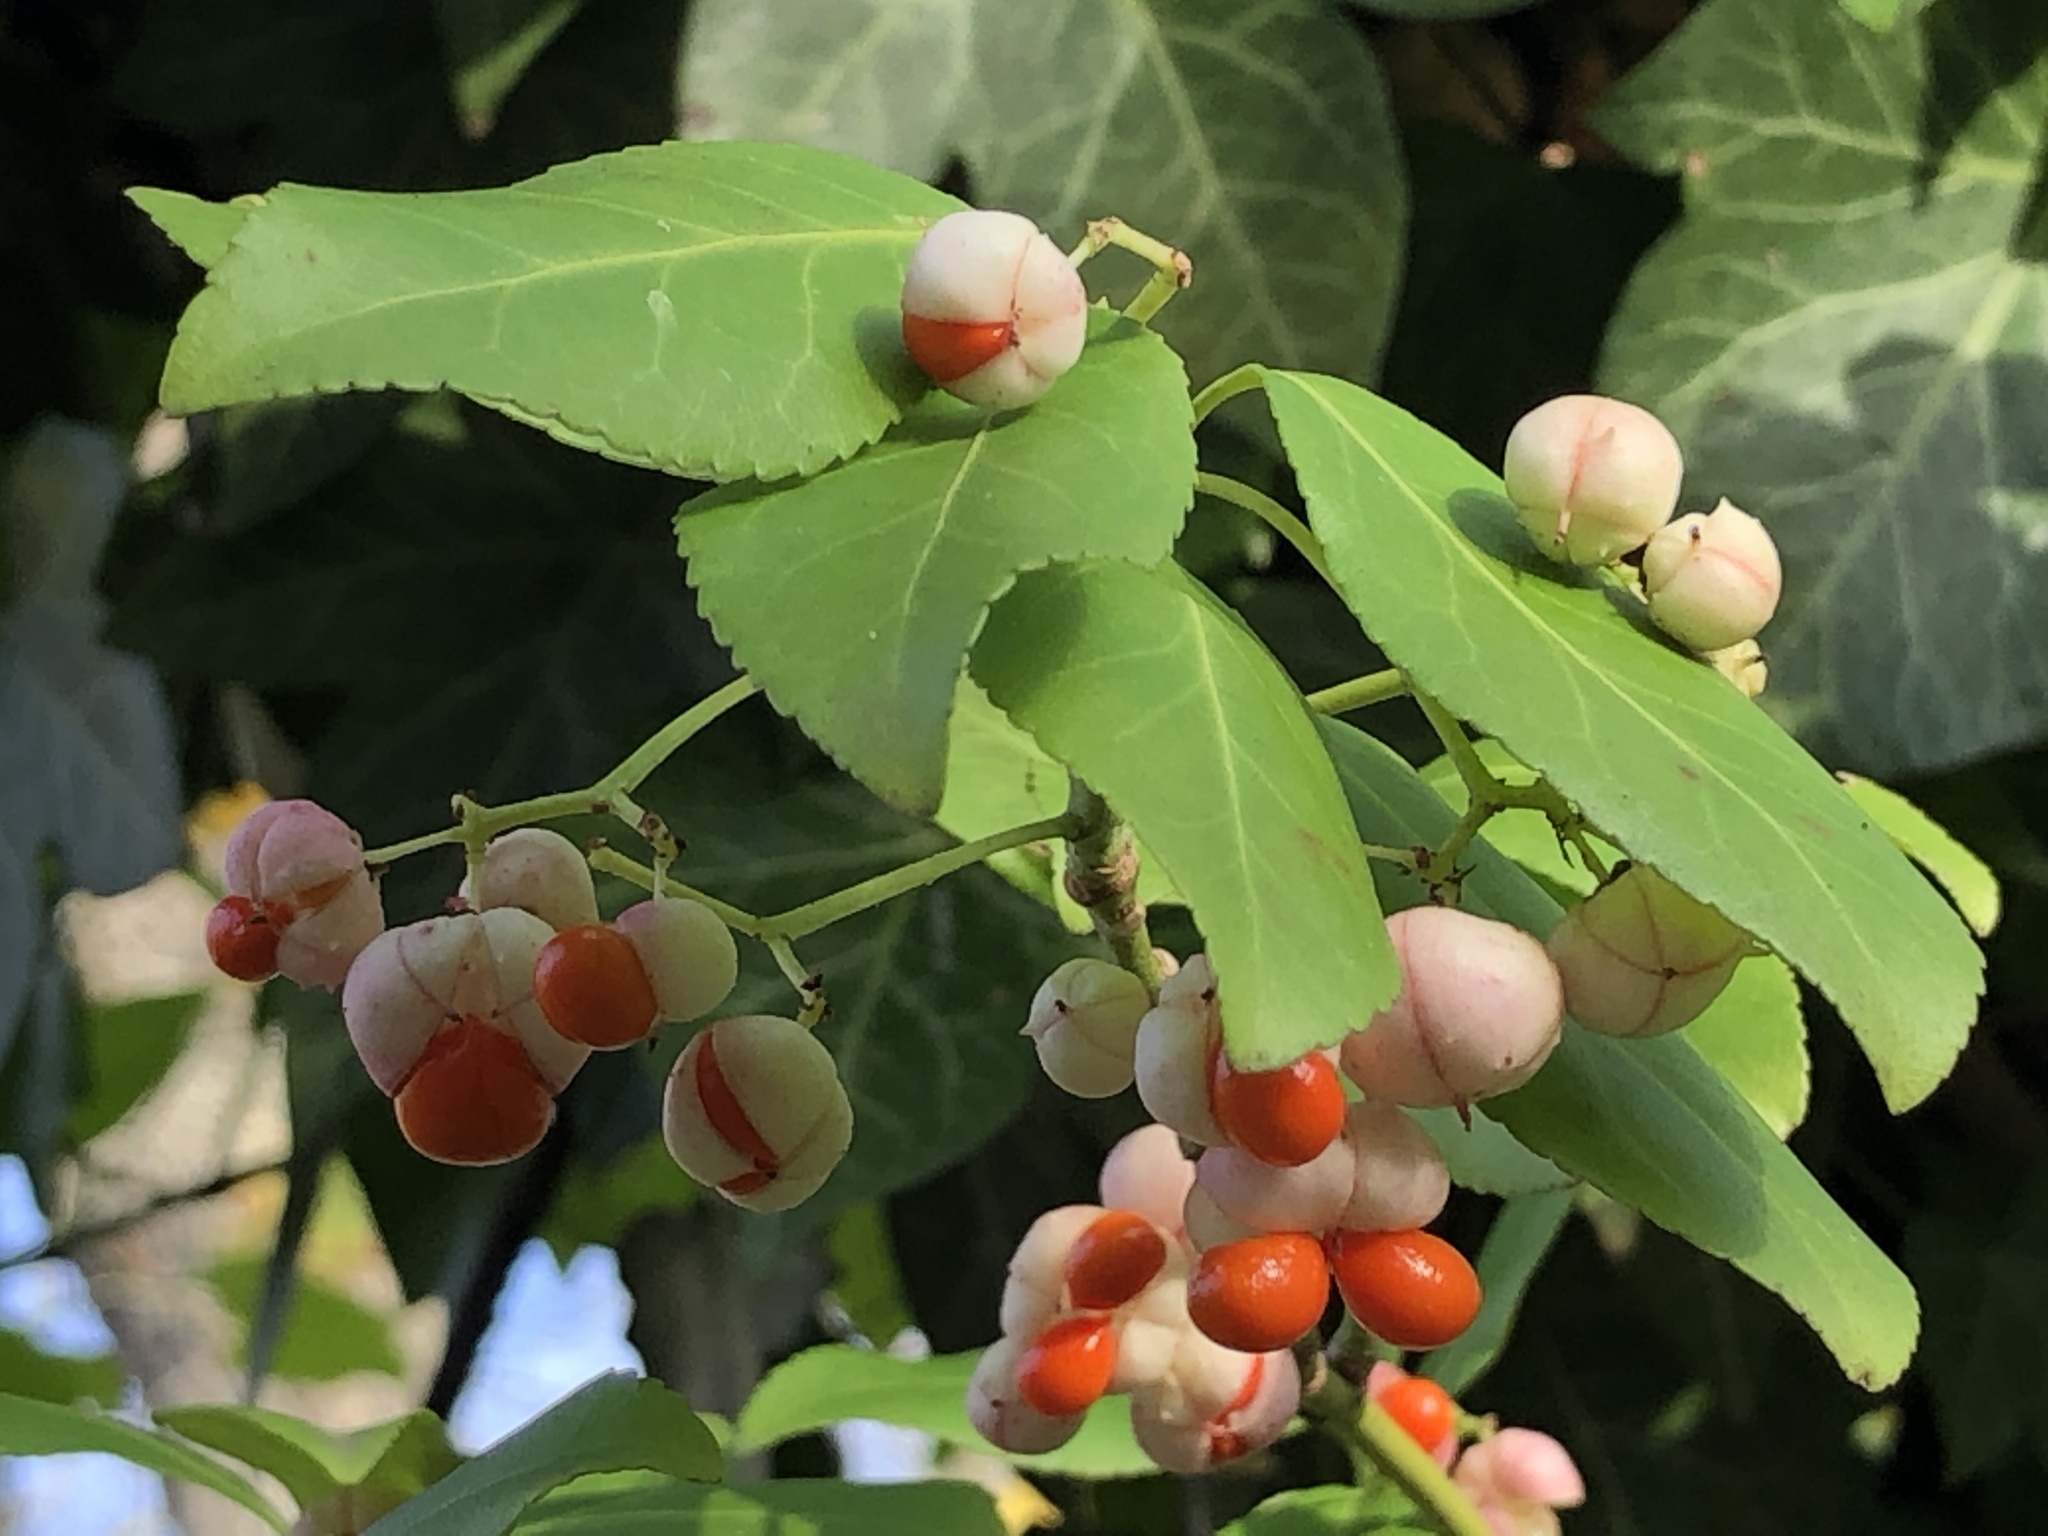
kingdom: Plantae
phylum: Tracheophyta
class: Magnoliopsida
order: Celastrales
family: Celastraceae
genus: Euonymus
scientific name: Euonymus fortunei
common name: Climbing euonymus
